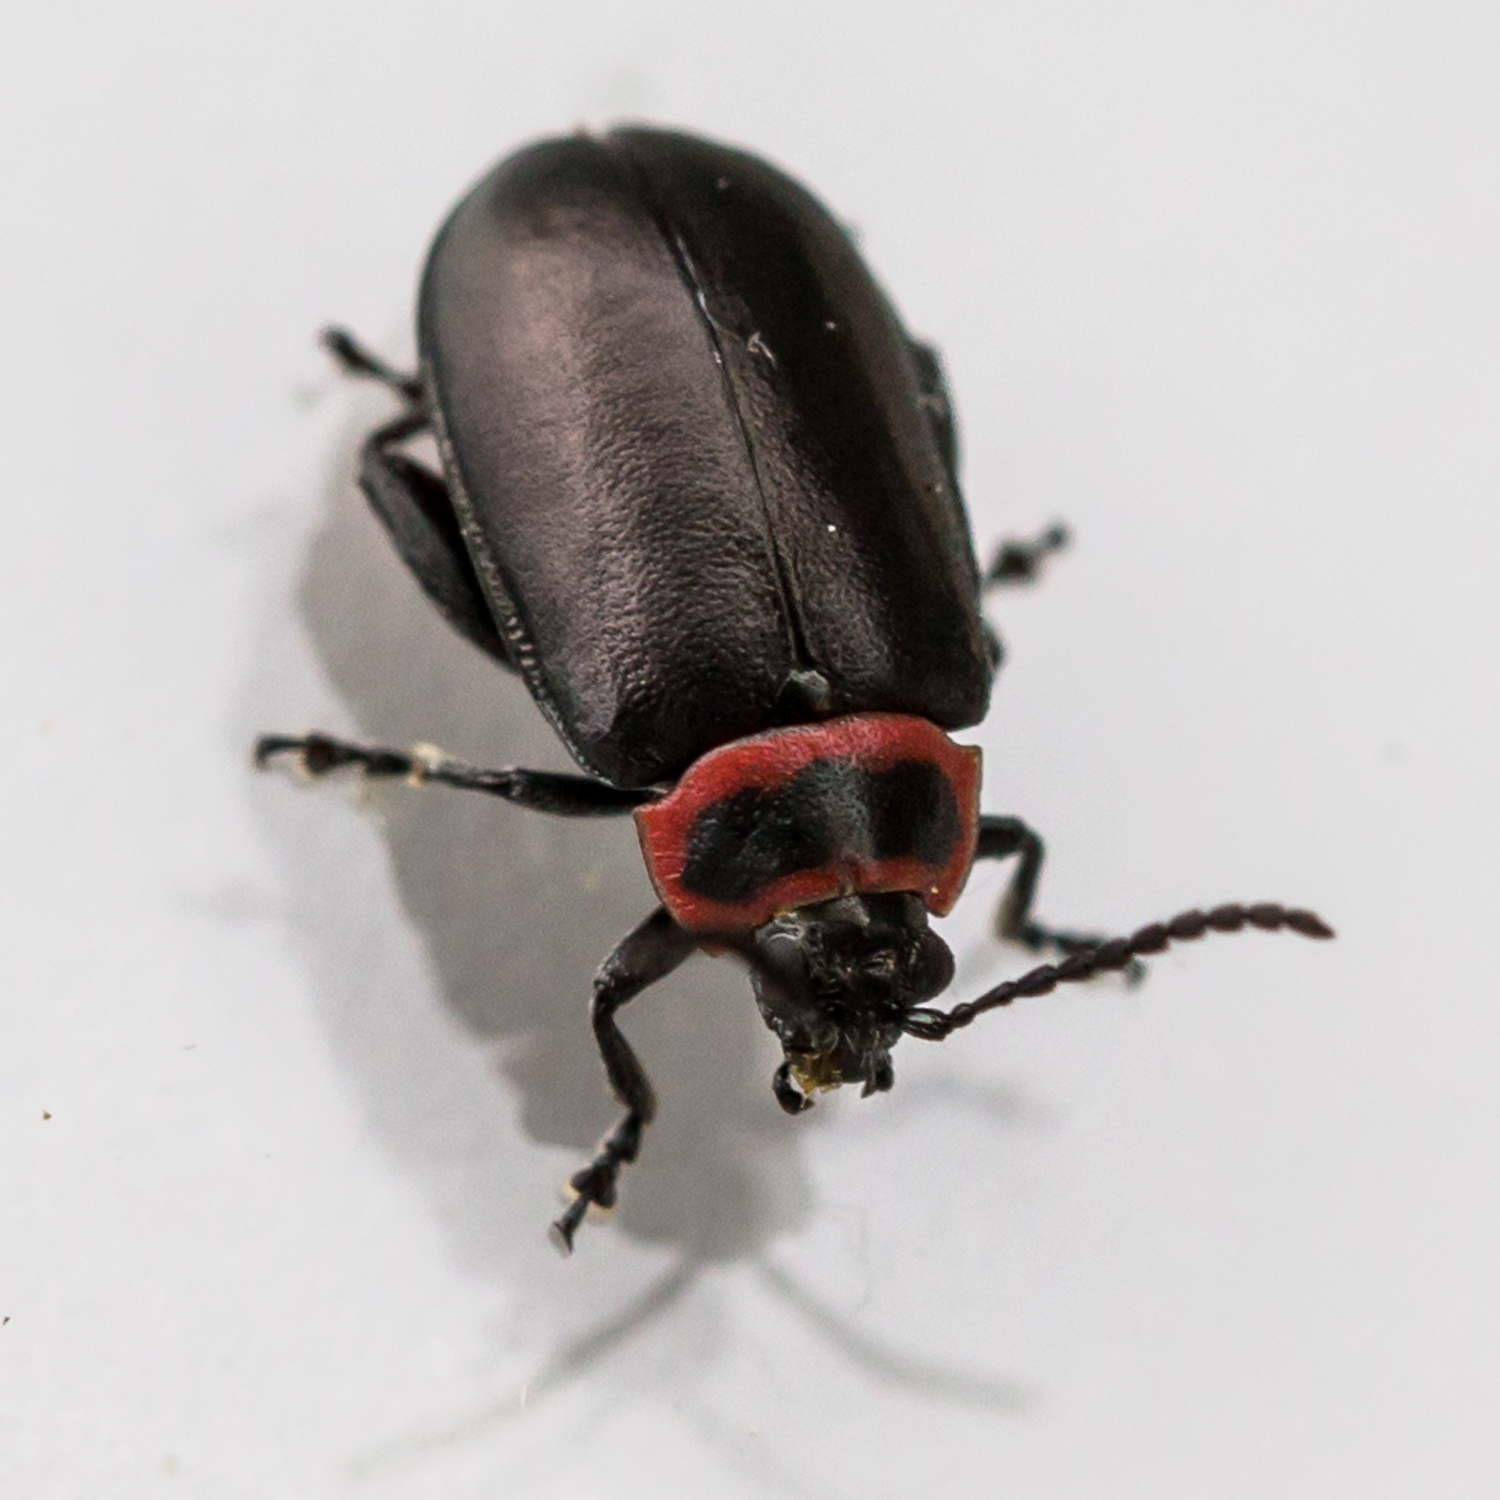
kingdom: Animalia
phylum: Arthropoda
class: Insecta
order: Coleoptera
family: Chrysomelidae
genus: Kuschelina
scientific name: Kuschelina vians
